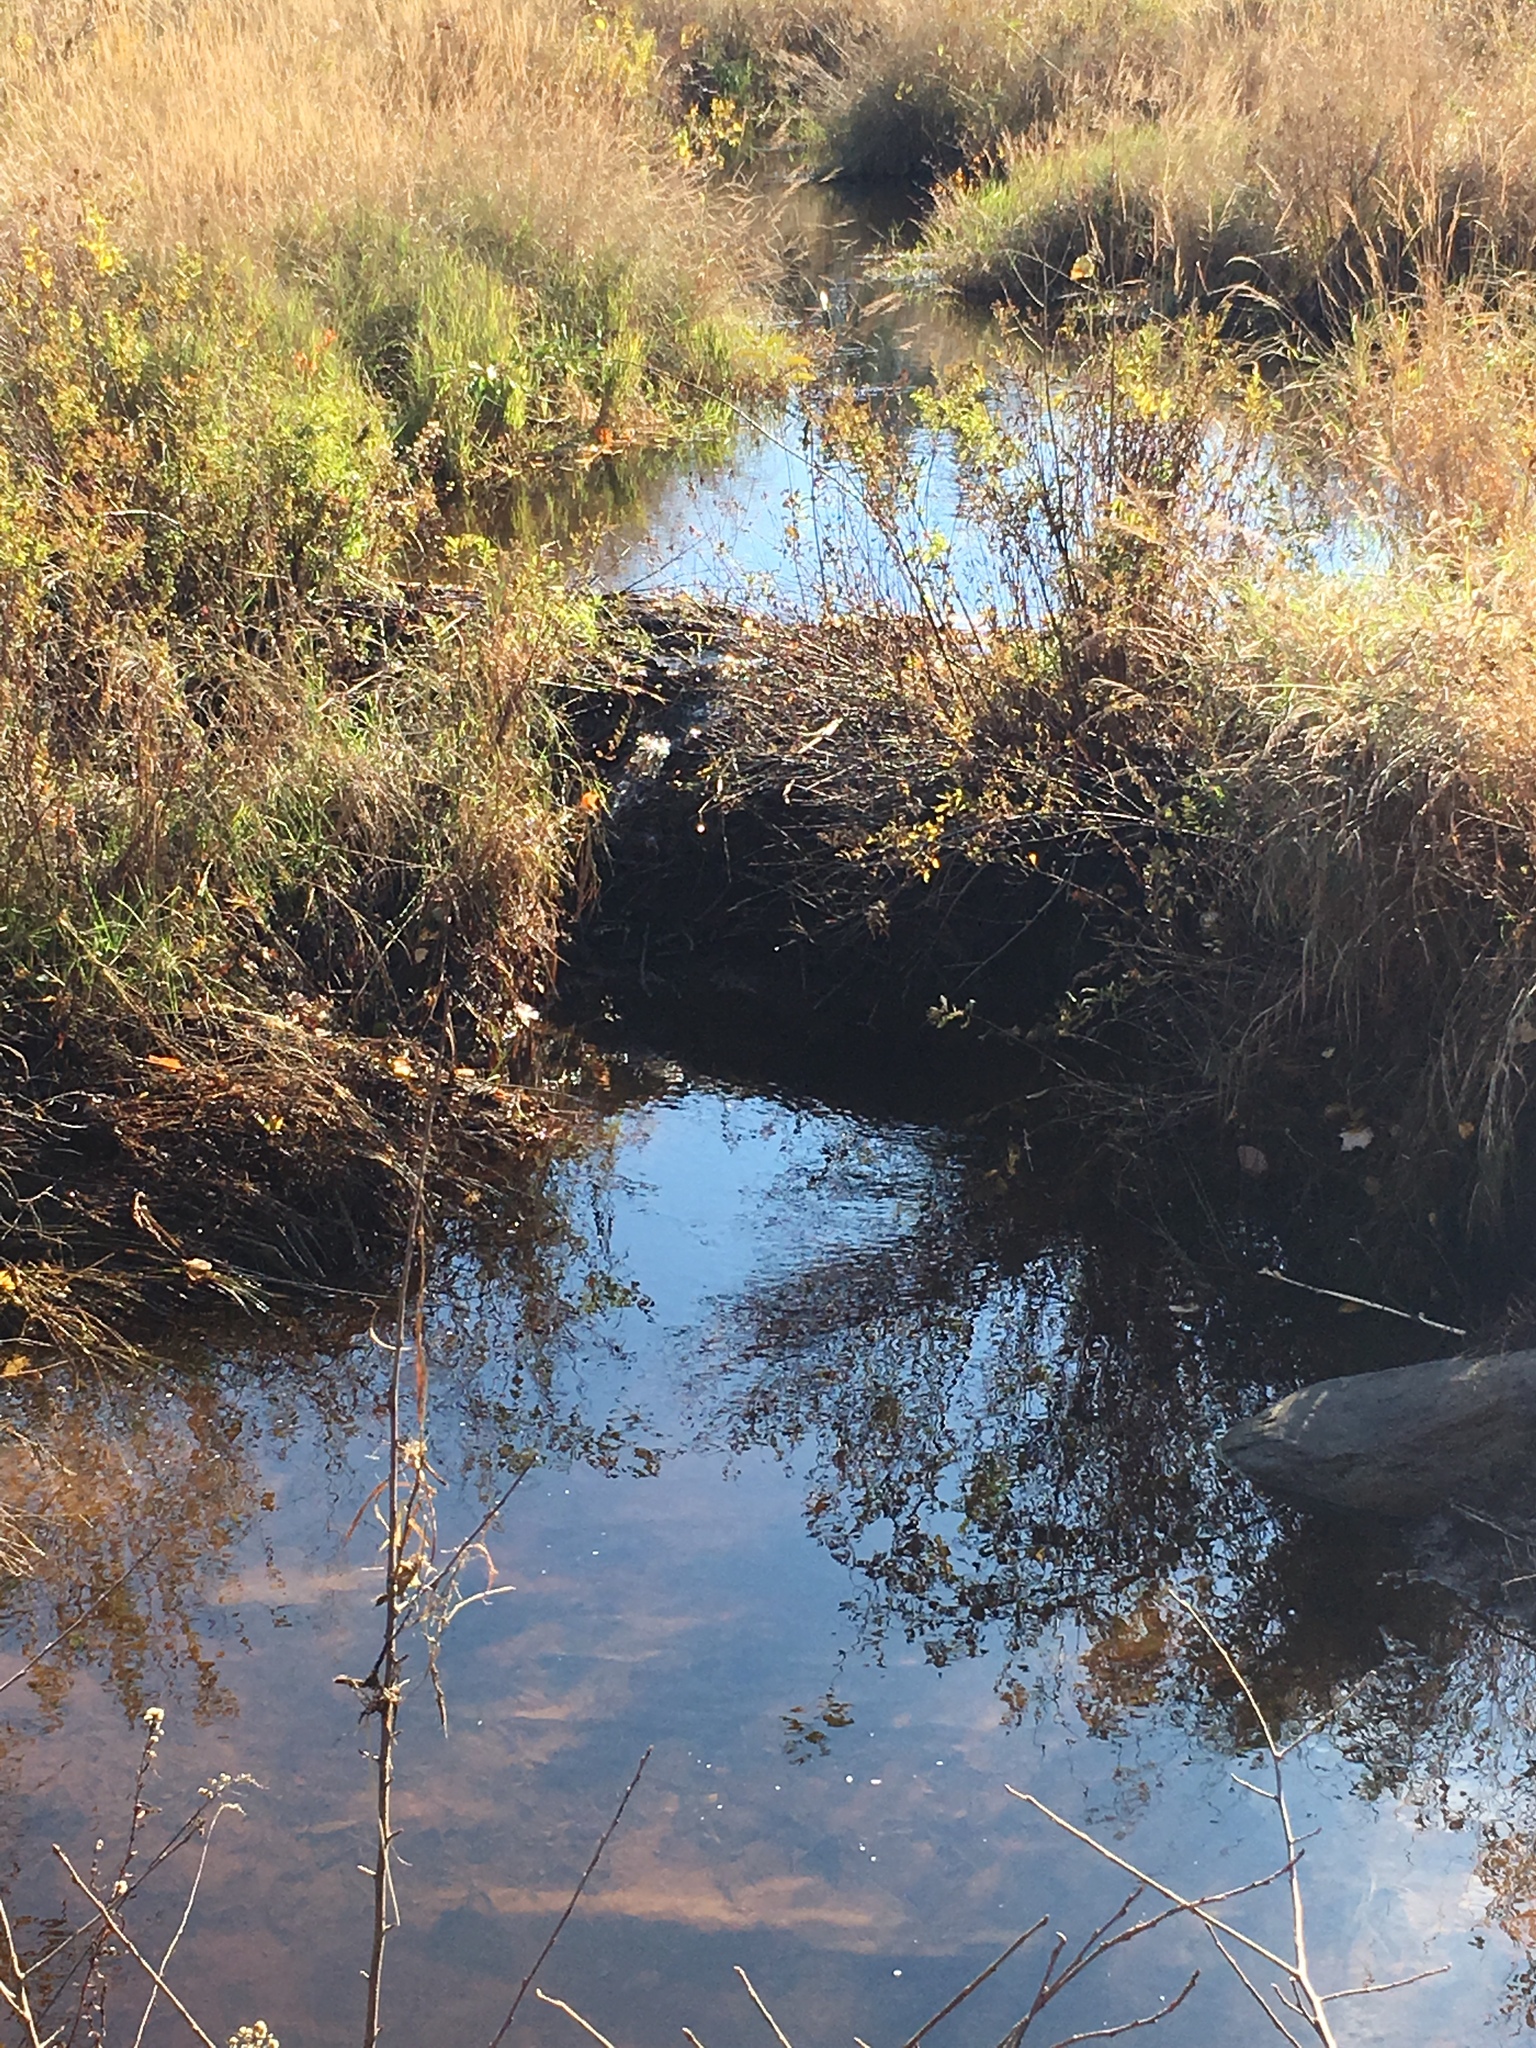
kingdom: Animalia
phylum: Chordata
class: Mammalia
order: Rodentia
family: Castoridae
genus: Castor
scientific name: Castor canadensis
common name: American beaver
